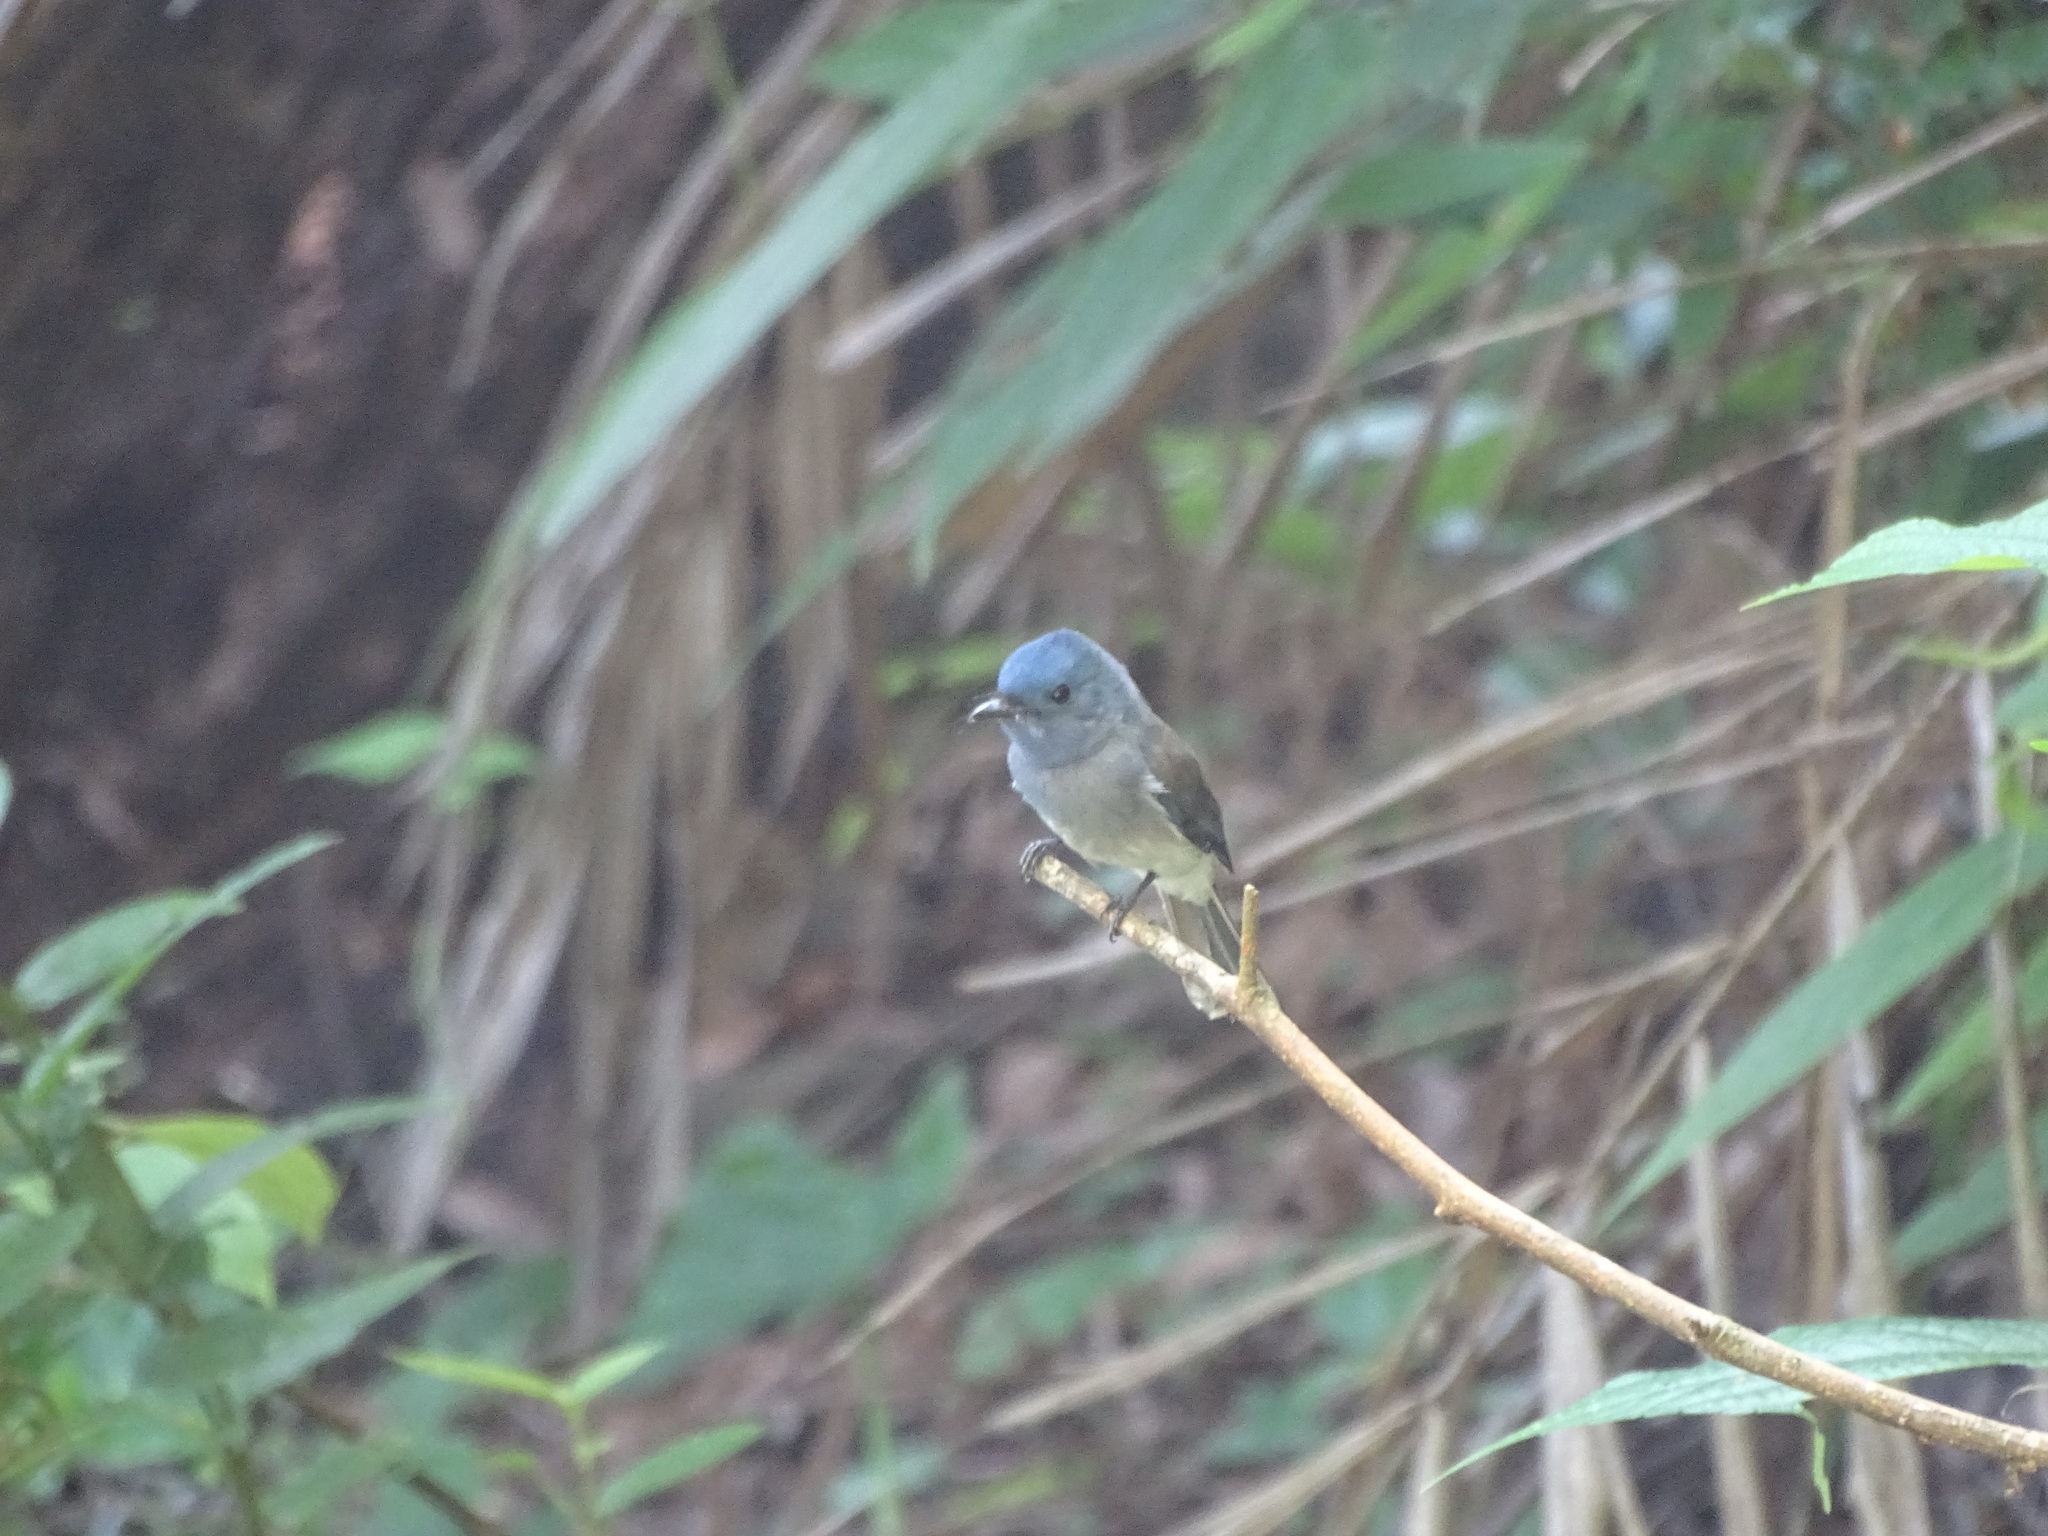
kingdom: Animalia
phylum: Chordata
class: Aves
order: Passeriformes
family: Monarchidae
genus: Hypothymis
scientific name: Hypothymis azurea
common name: Black-naped monarch
